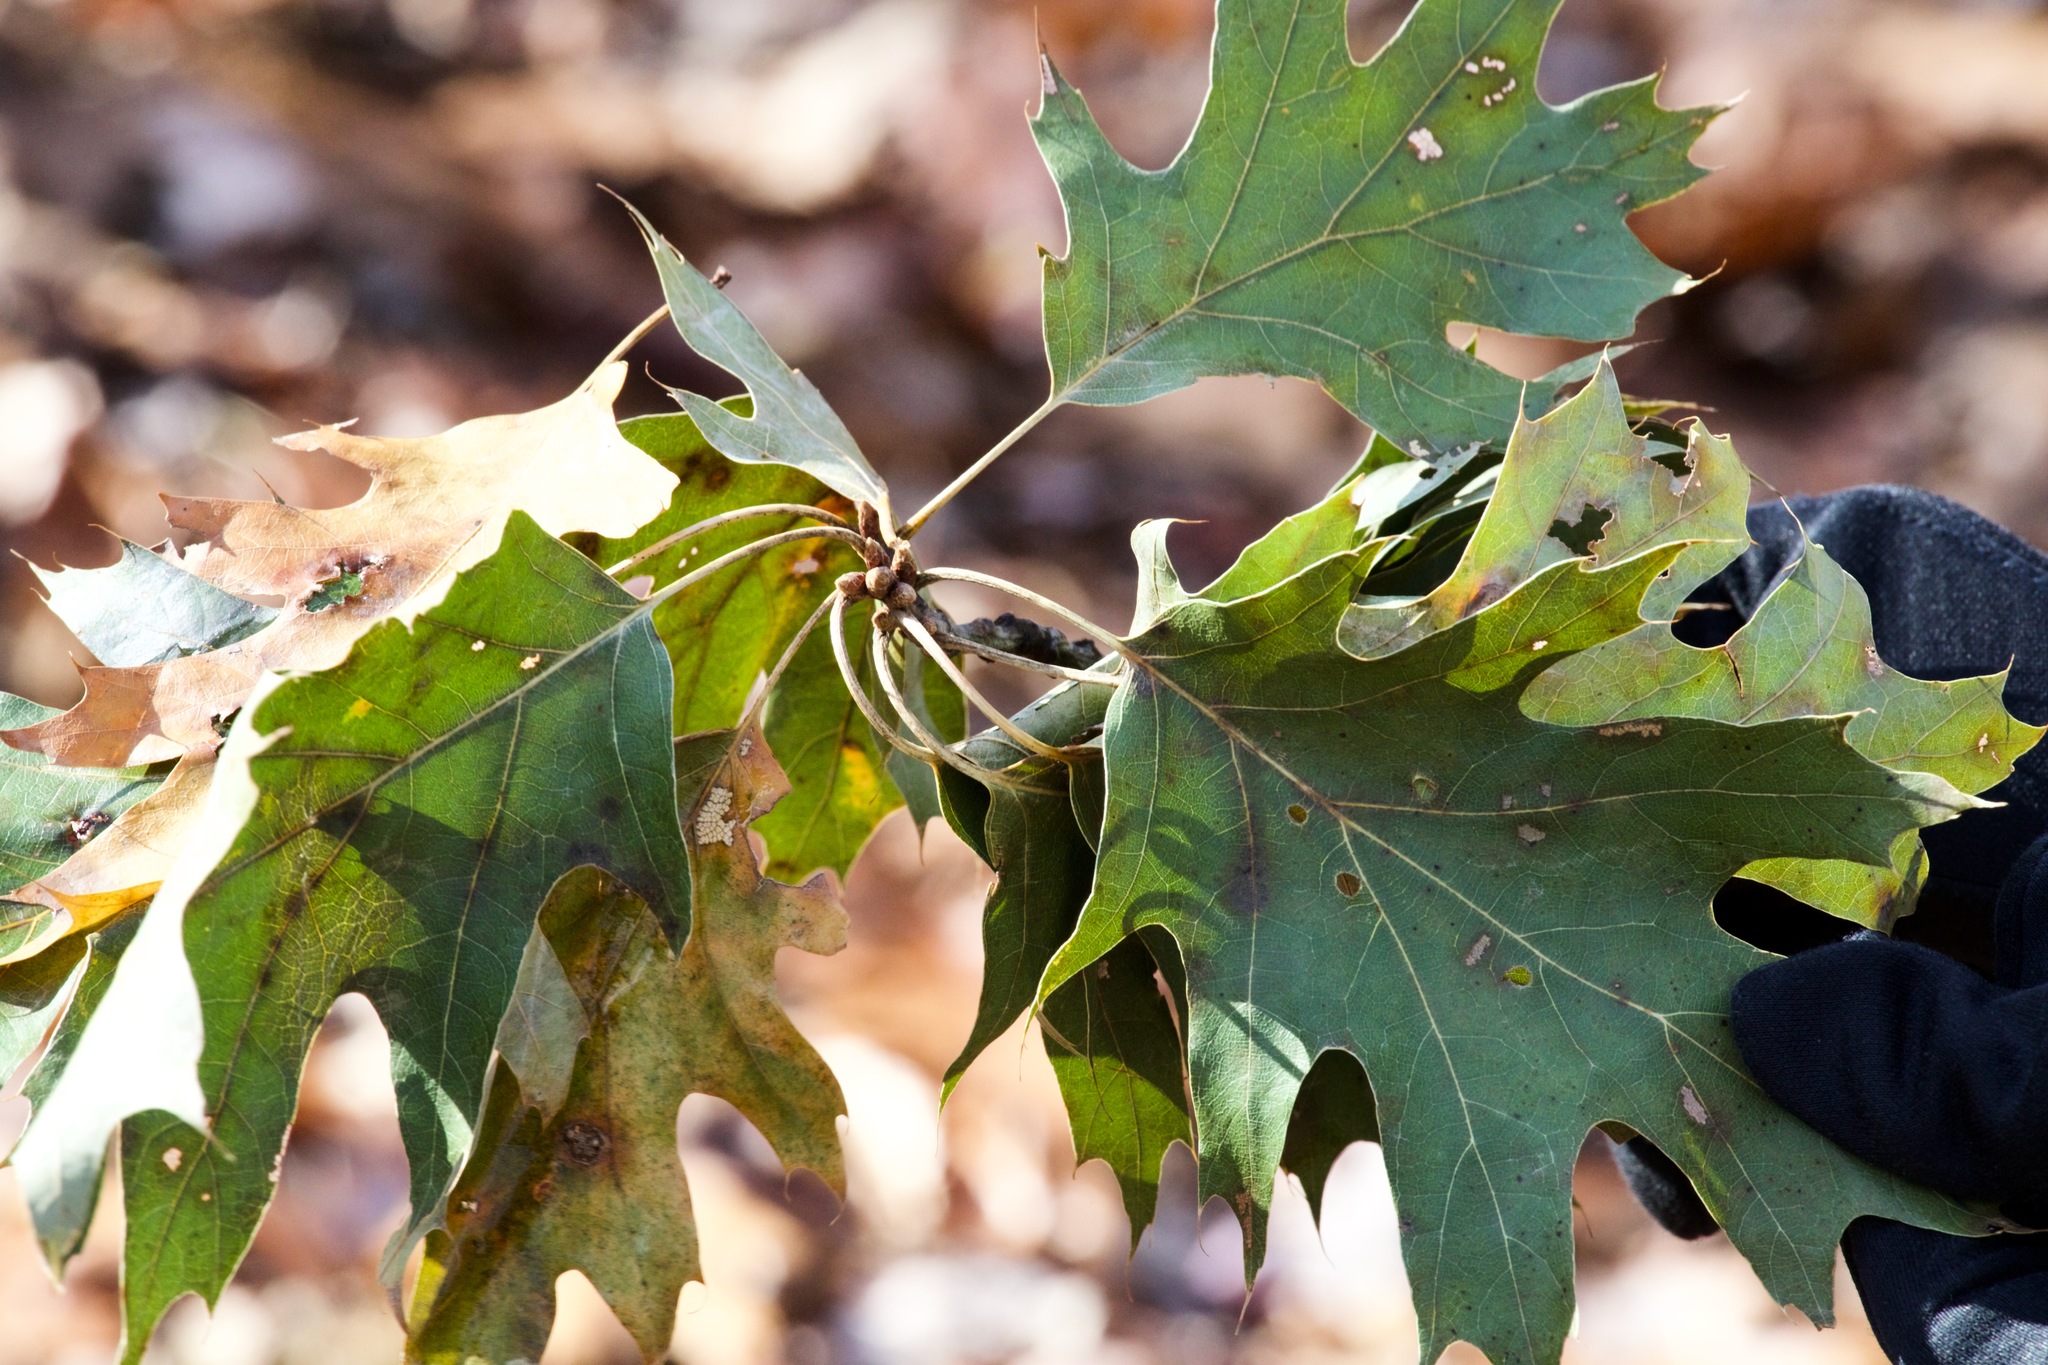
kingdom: Plantae
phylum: Tracheophyta
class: Magnoliopsida
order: Fagales
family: Fagaceae
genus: Quercus
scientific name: Quercus rubra
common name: Red oak
